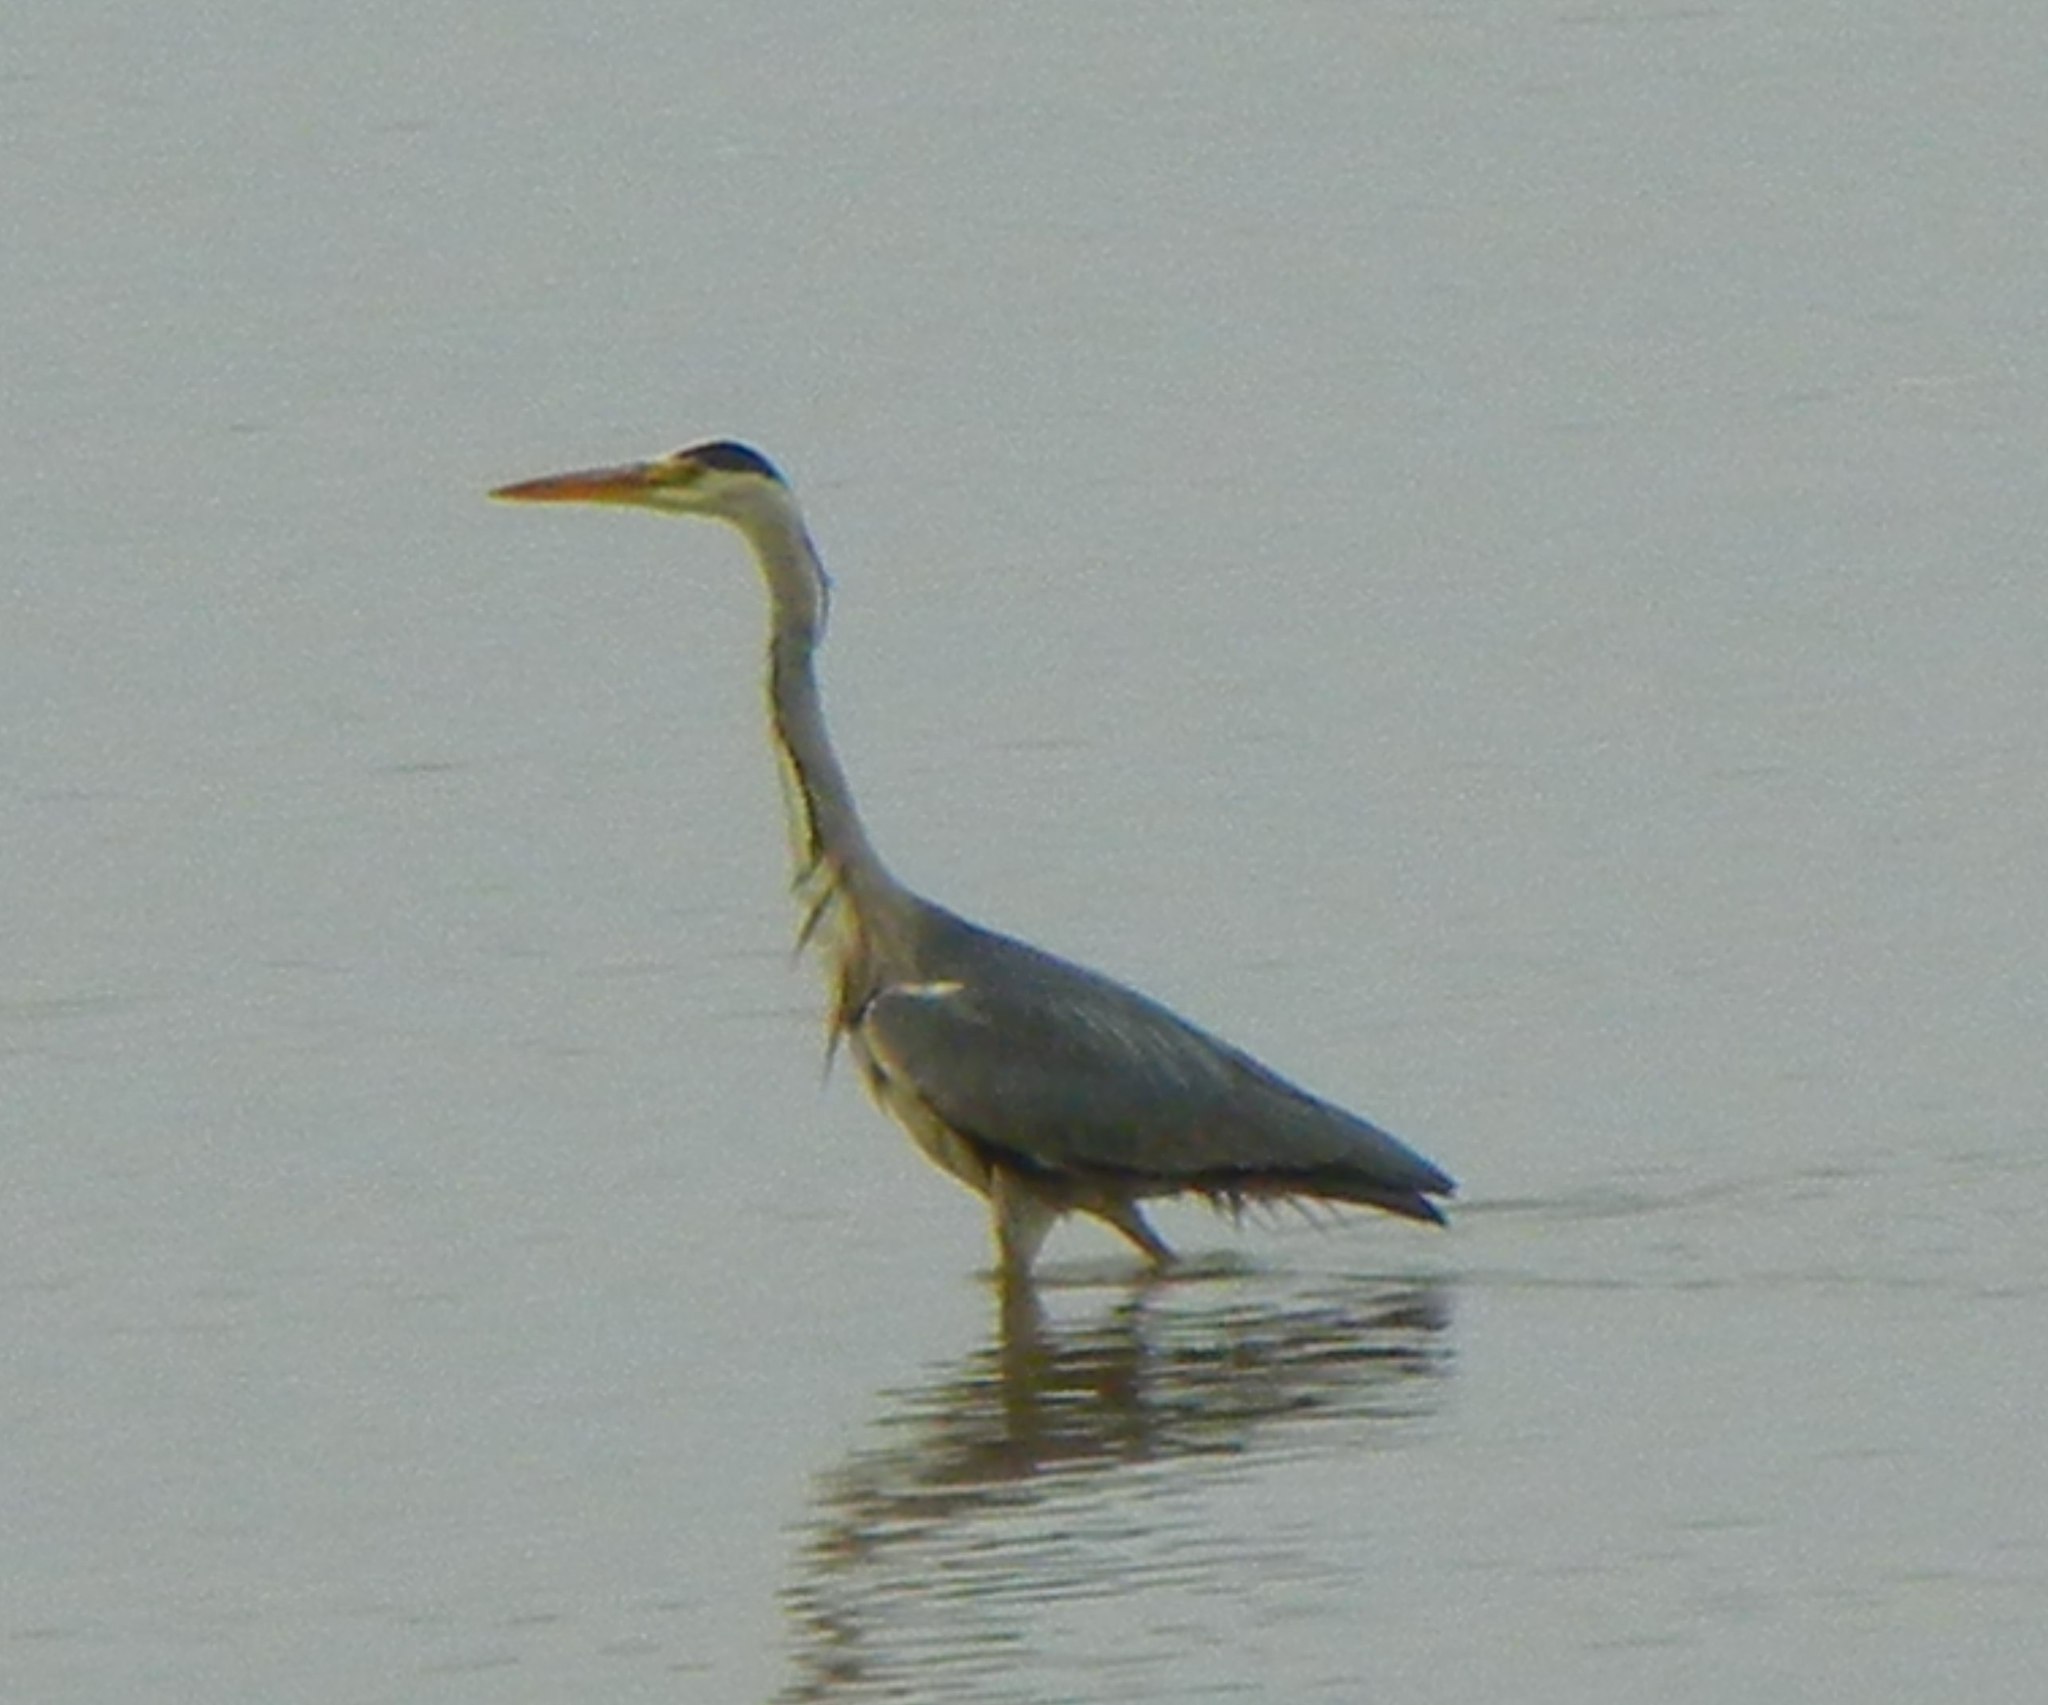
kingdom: Animalia
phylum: Chordata
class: Aves
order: Pelecaniformes
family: Ardeidae
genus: Ardea
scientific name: Ardea cinerea
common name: Grey heron
